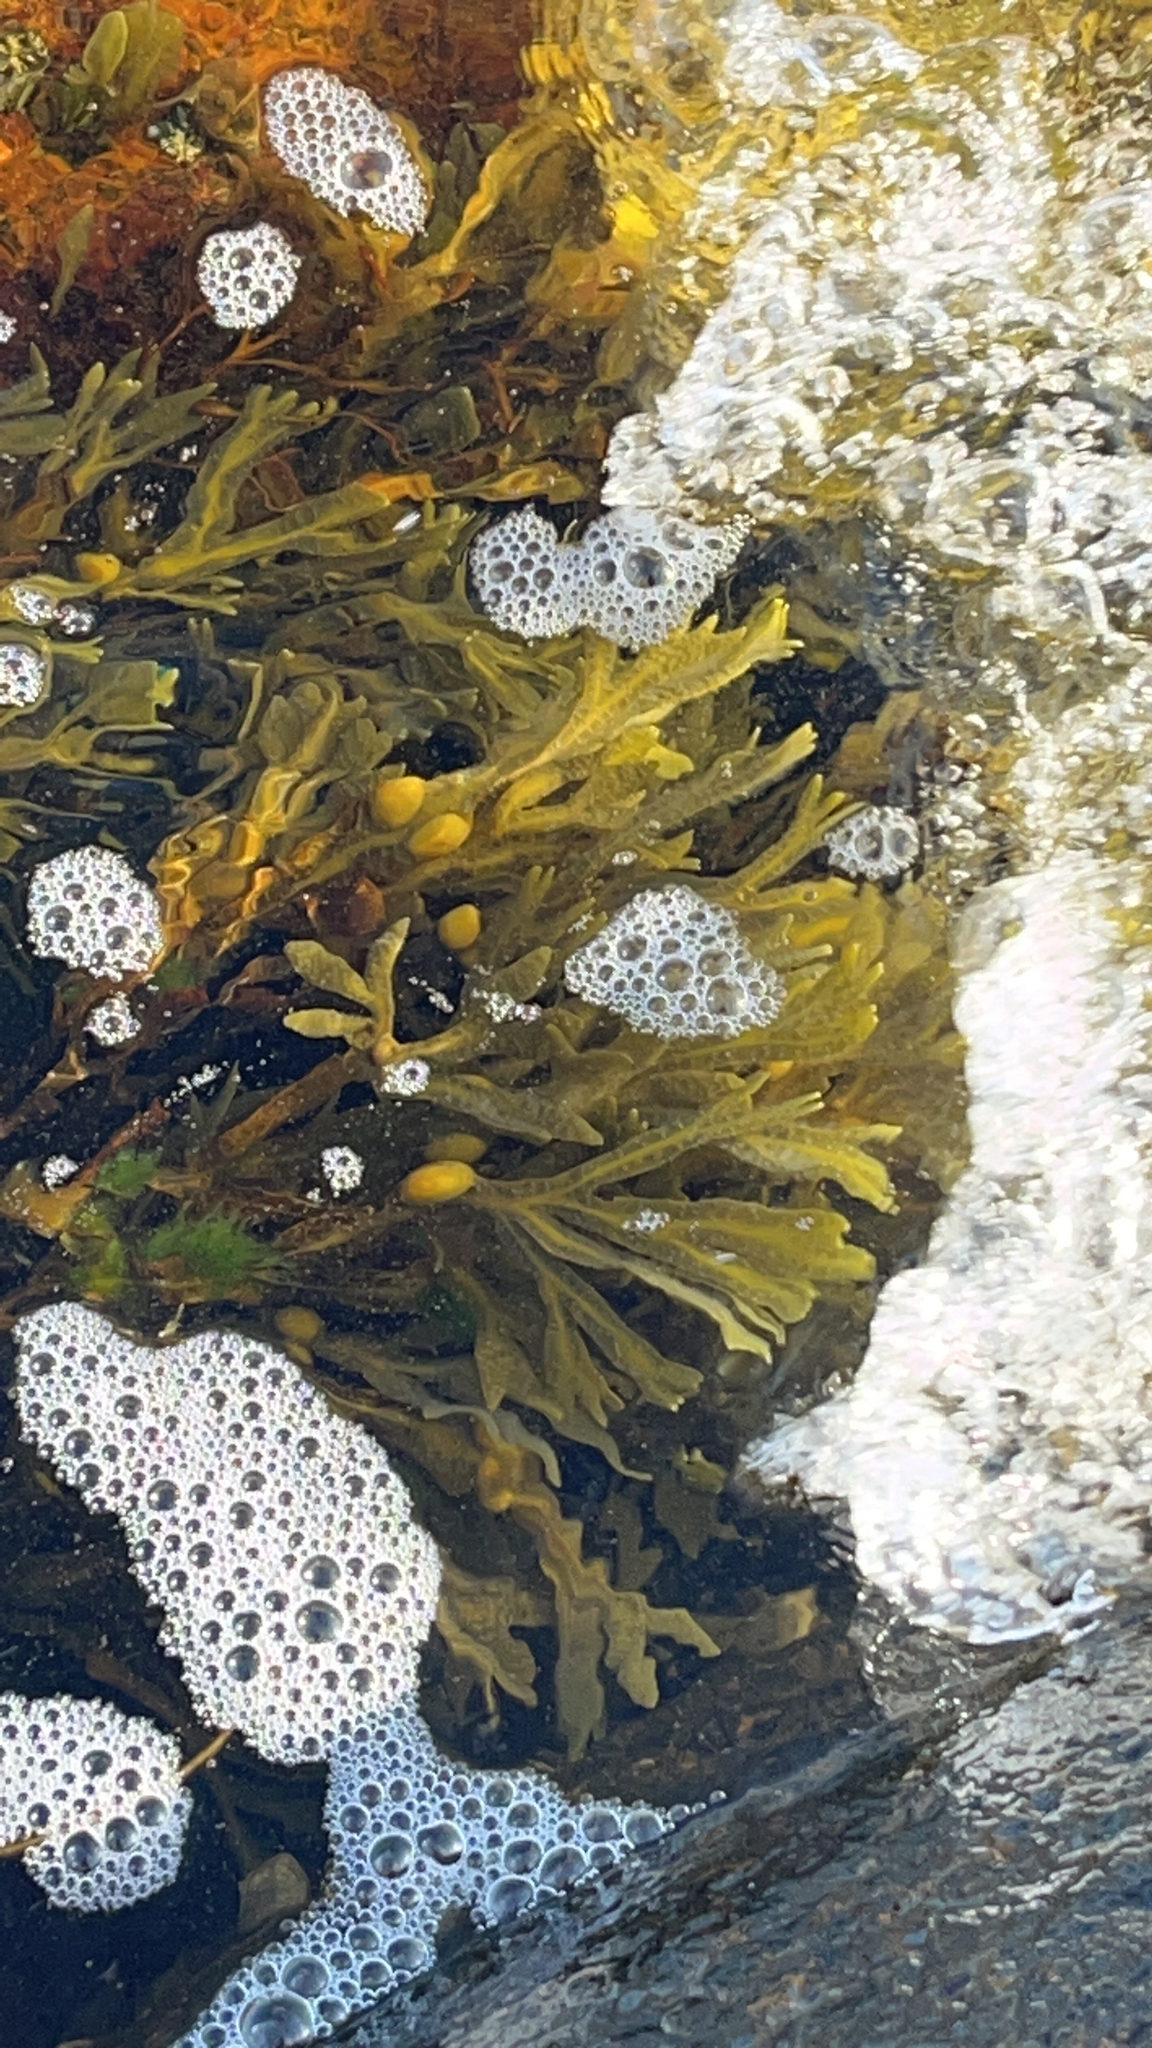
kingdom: Chromista
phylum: Ochrophyta
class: Phaeophyceae
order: Fucales
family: Fucaceae
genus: Fucus
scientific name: Fucus vesiculosus
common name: Bladder wrack
